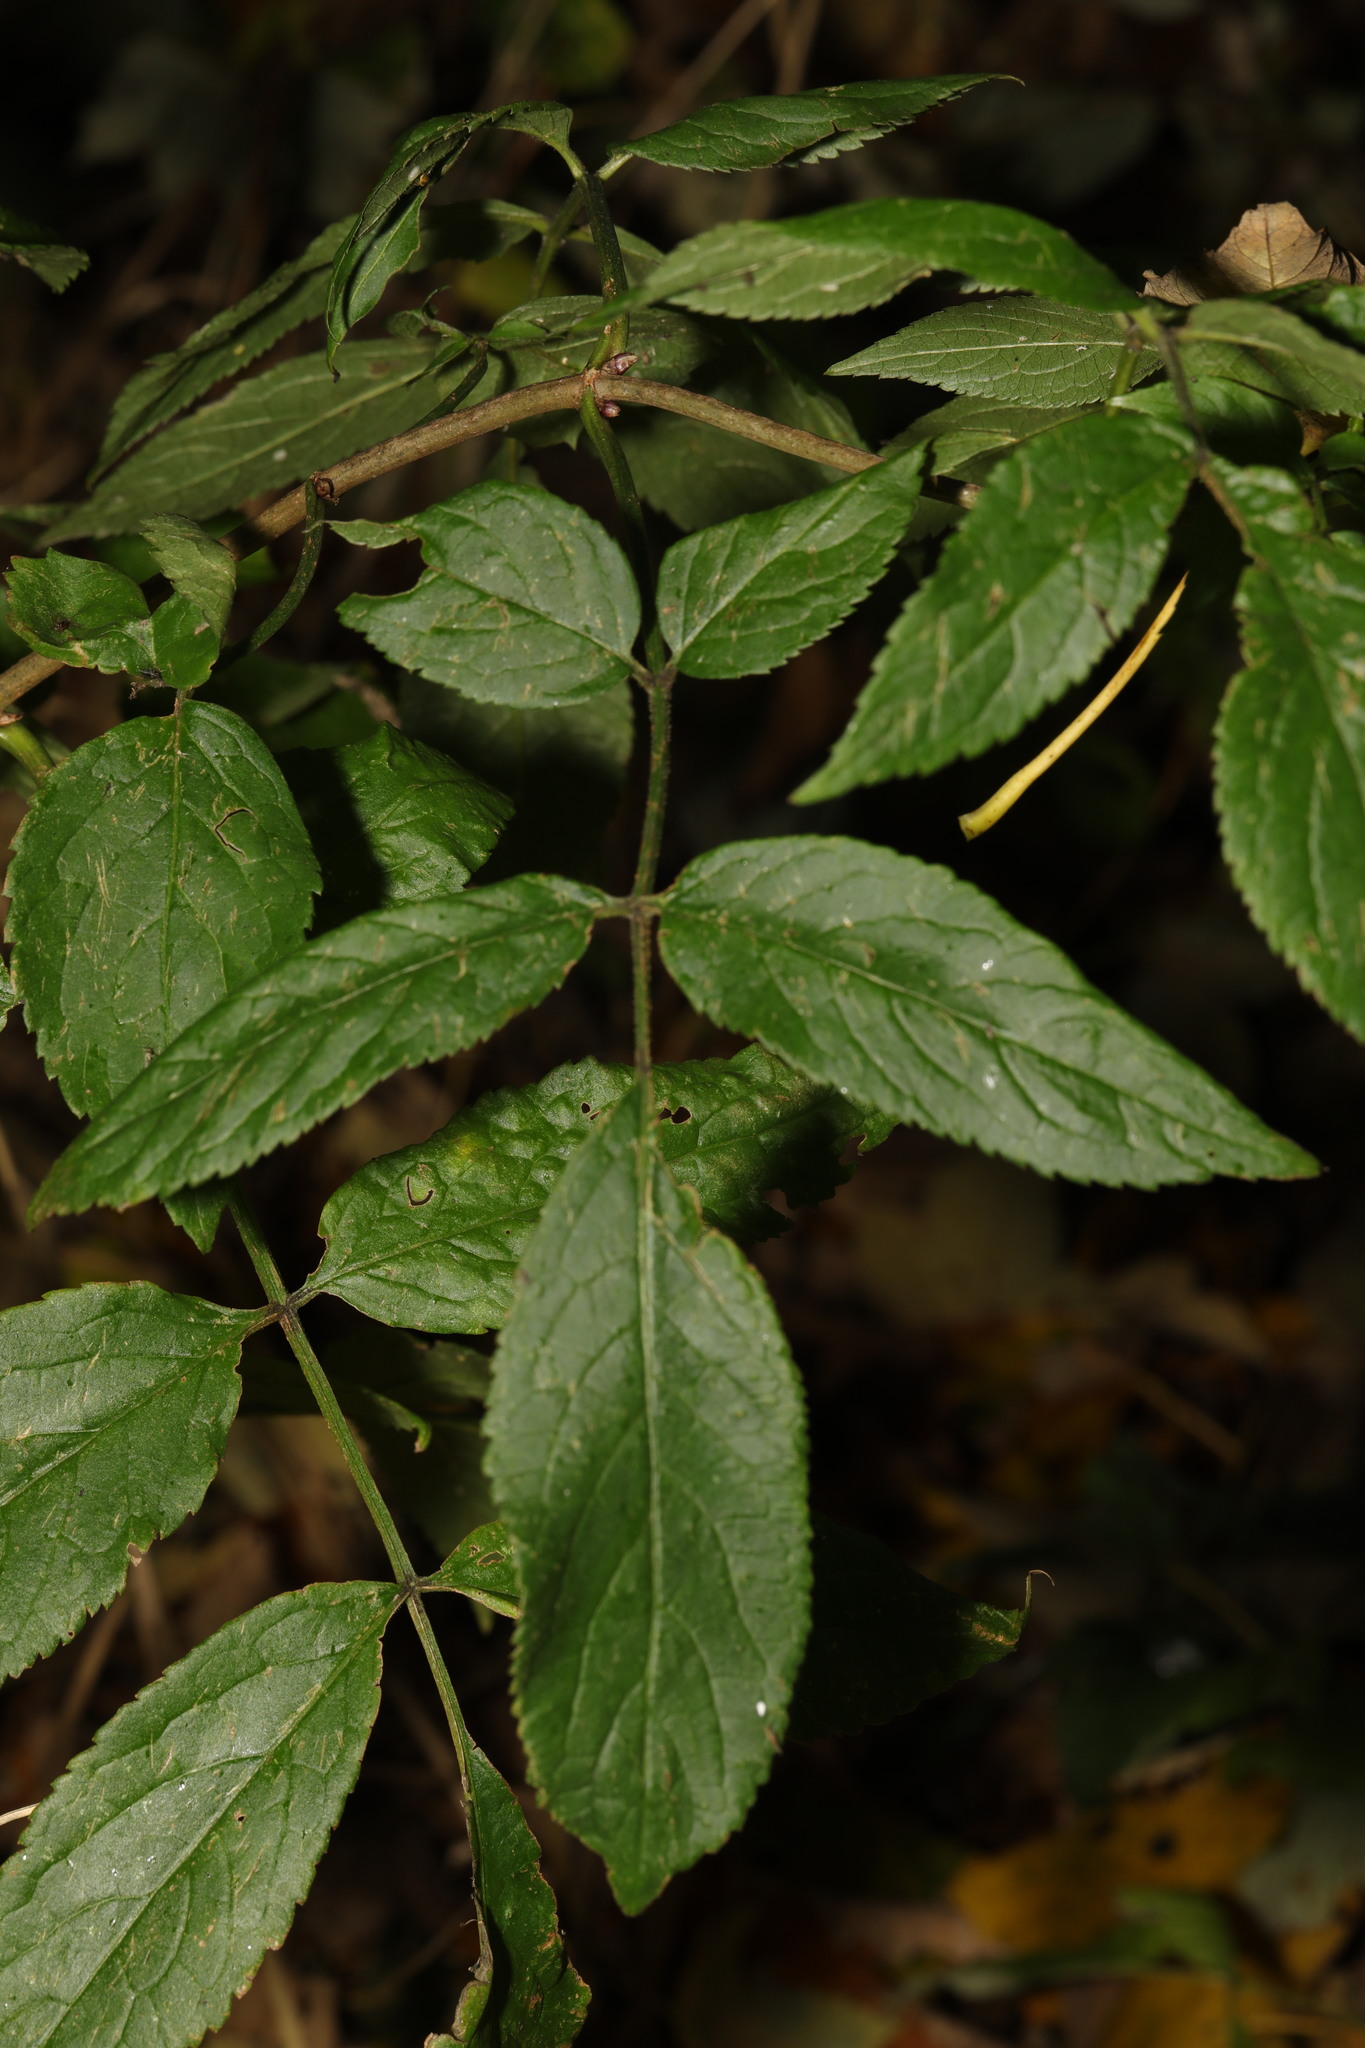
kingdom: Plantae
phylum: Tracheophyta
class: Magnoliopsida
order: Dipsacales
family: Viburnaceae
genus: Sambucus
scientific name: Sambucus nigra
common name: Elder
